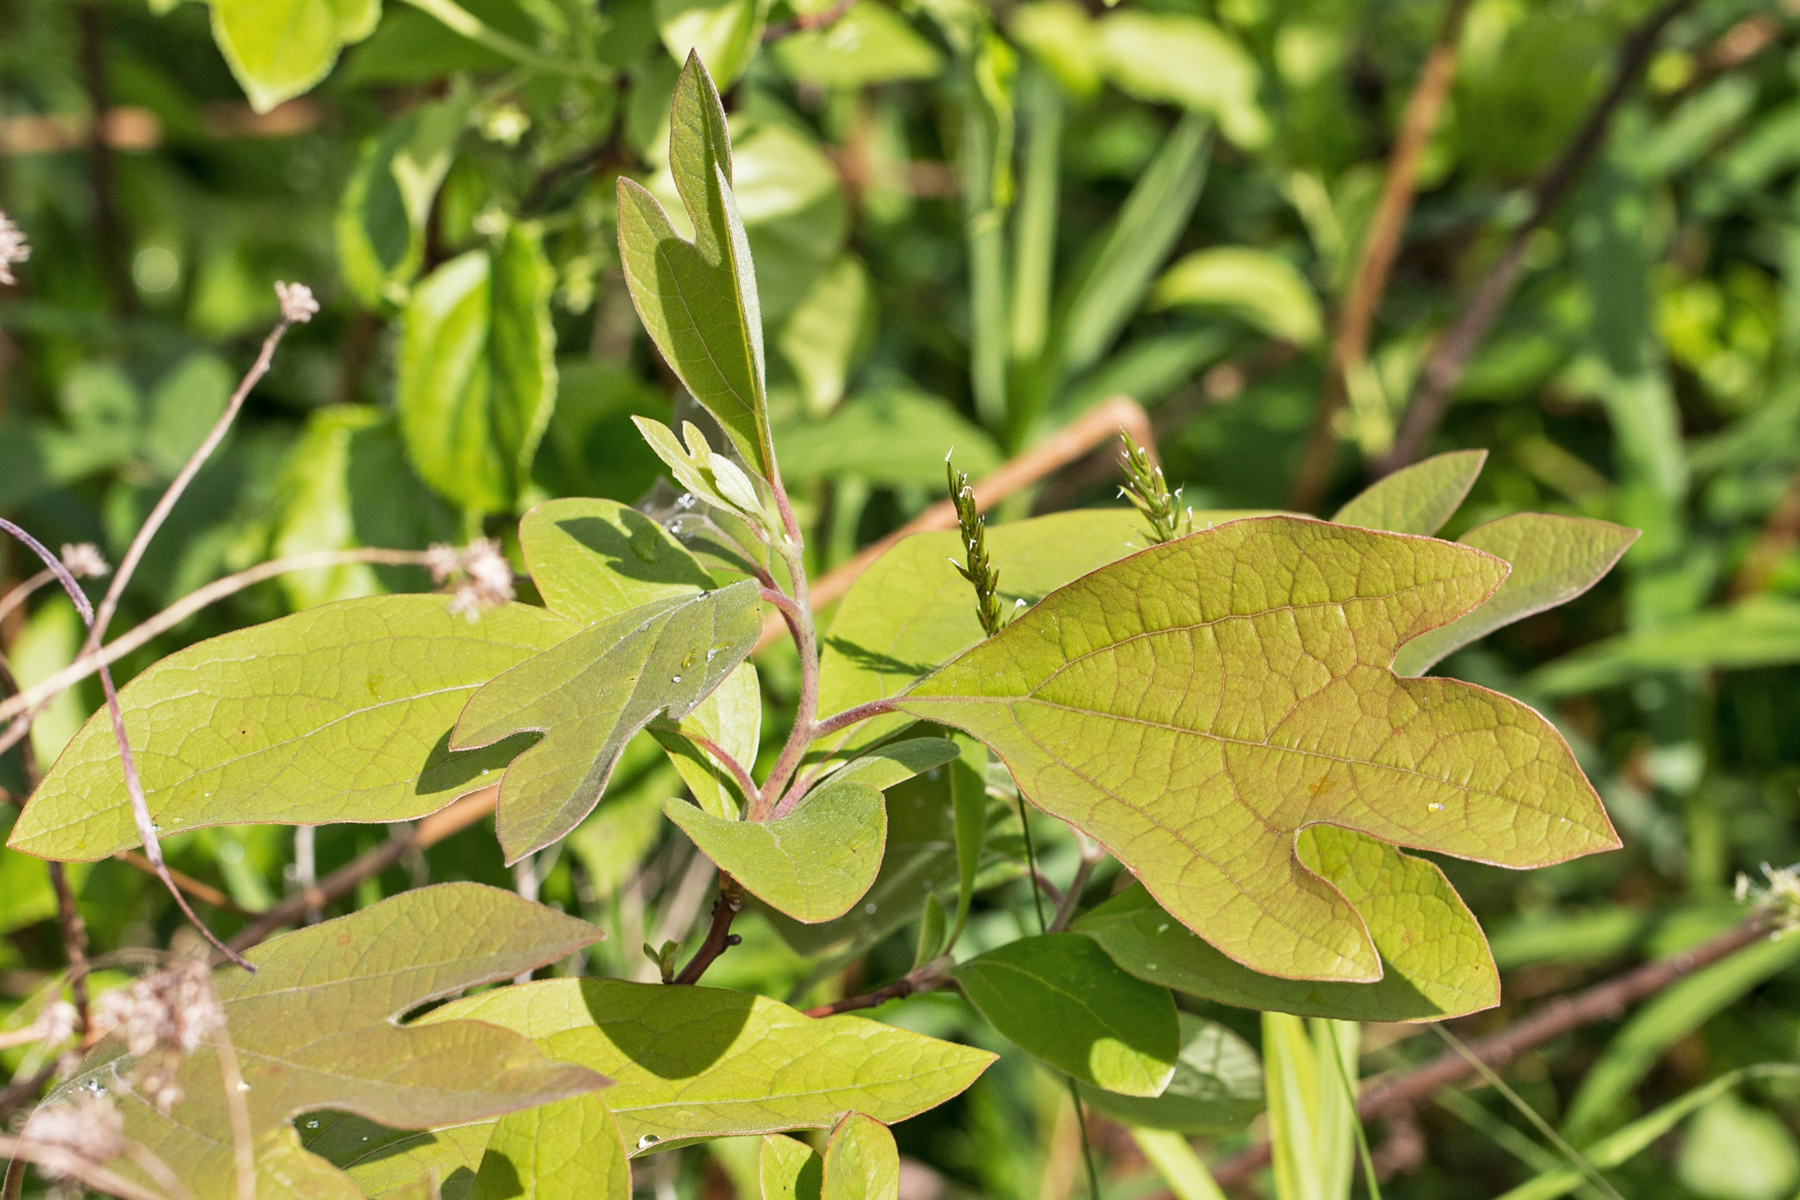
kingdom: Plantae
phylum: Tracheophyta
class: Magnoliopsida
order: Laurales
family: Lauraceae
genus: Sassafras
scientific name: Sassafras albidum
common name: Sassafras
